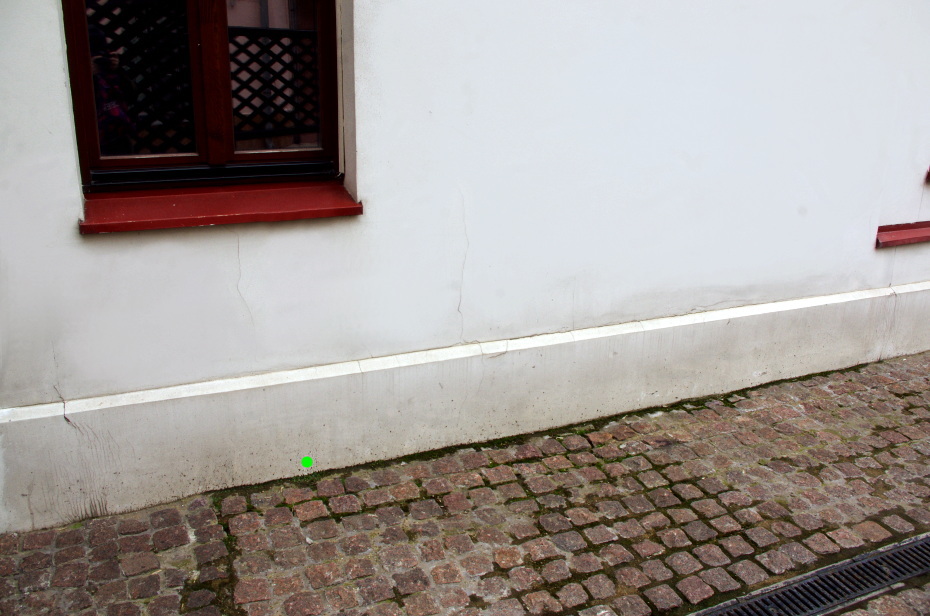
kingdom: Plantae
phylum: Tracheophyta
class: Magnoliopsida
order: Caryophyllales
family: Caryophyllaceae
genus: Sagina
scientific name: Sagina procumbens
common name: Procumbent pearlwort
